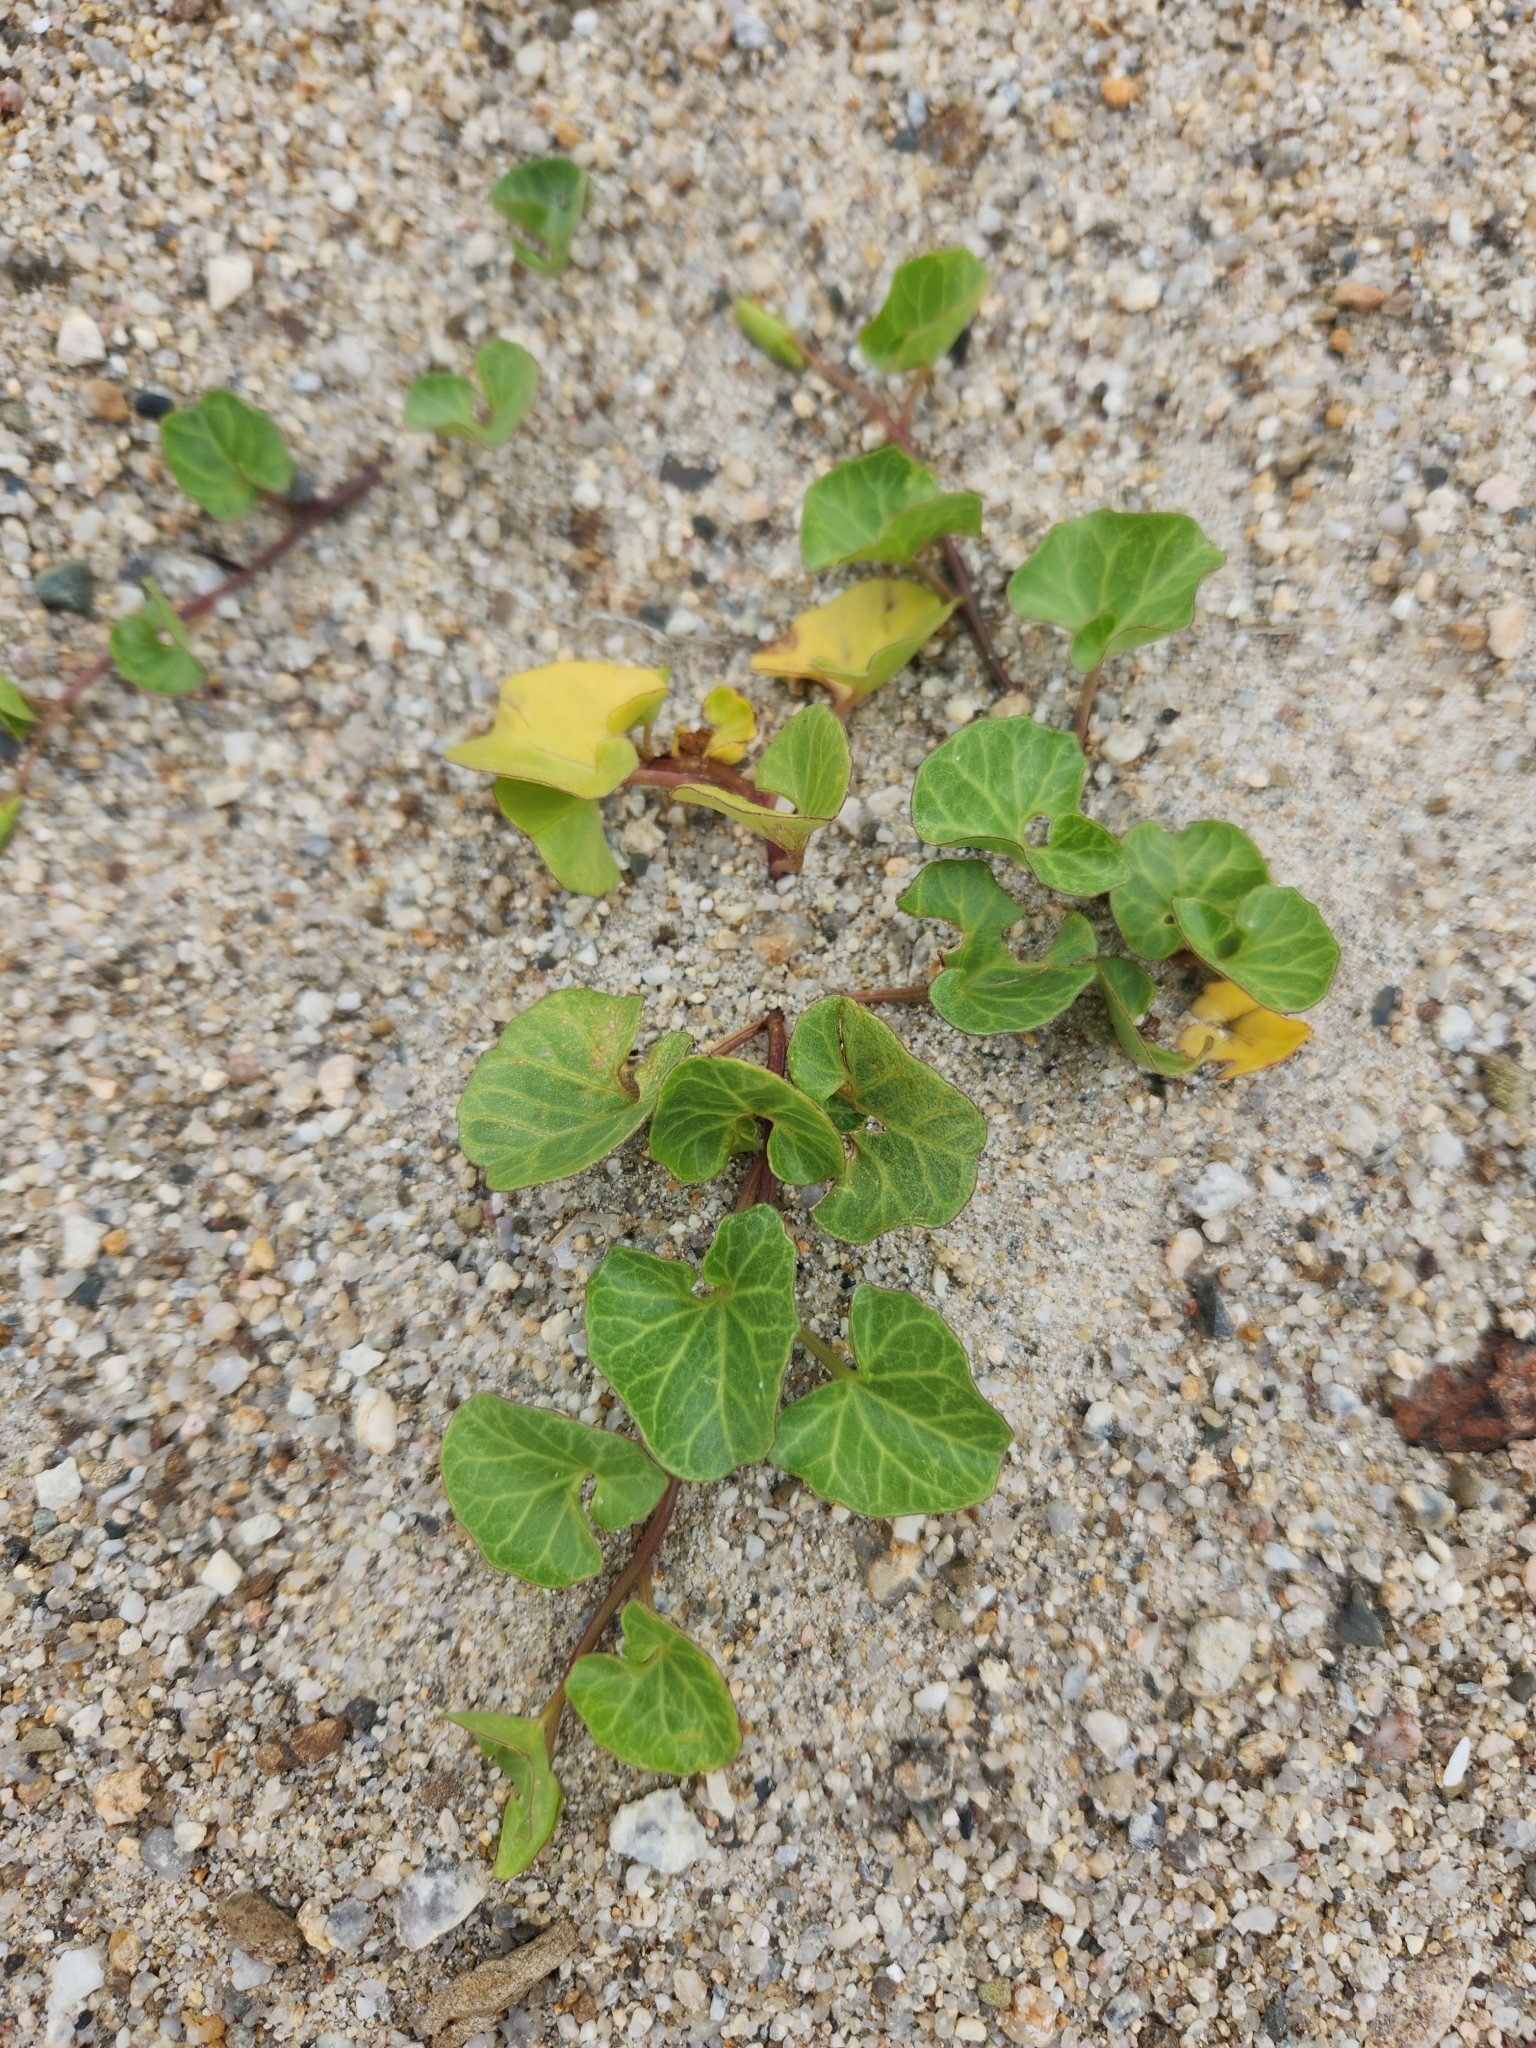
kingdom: Plantae
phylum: Tracheophyta
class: Magnoliopsida
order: Solanales
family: Convolvulaceae
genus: Calystegia
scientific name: Calystegia soldanella
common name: Sea bindweed
